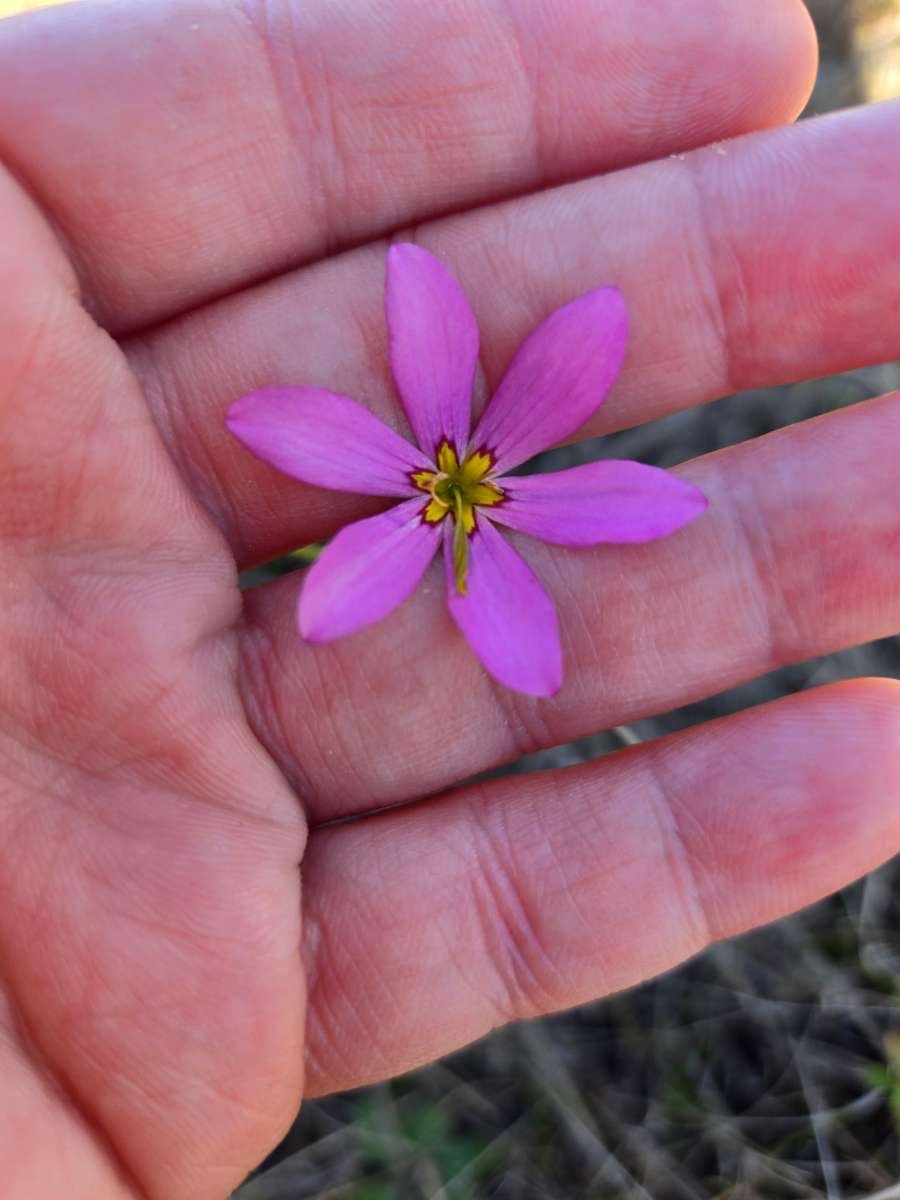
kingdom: Plantae
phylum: Tracheophyta
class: Magnoliopsida
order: Gentianales
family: Gentianaceae
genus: Sabatia
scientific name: Sabatia grandiflora
